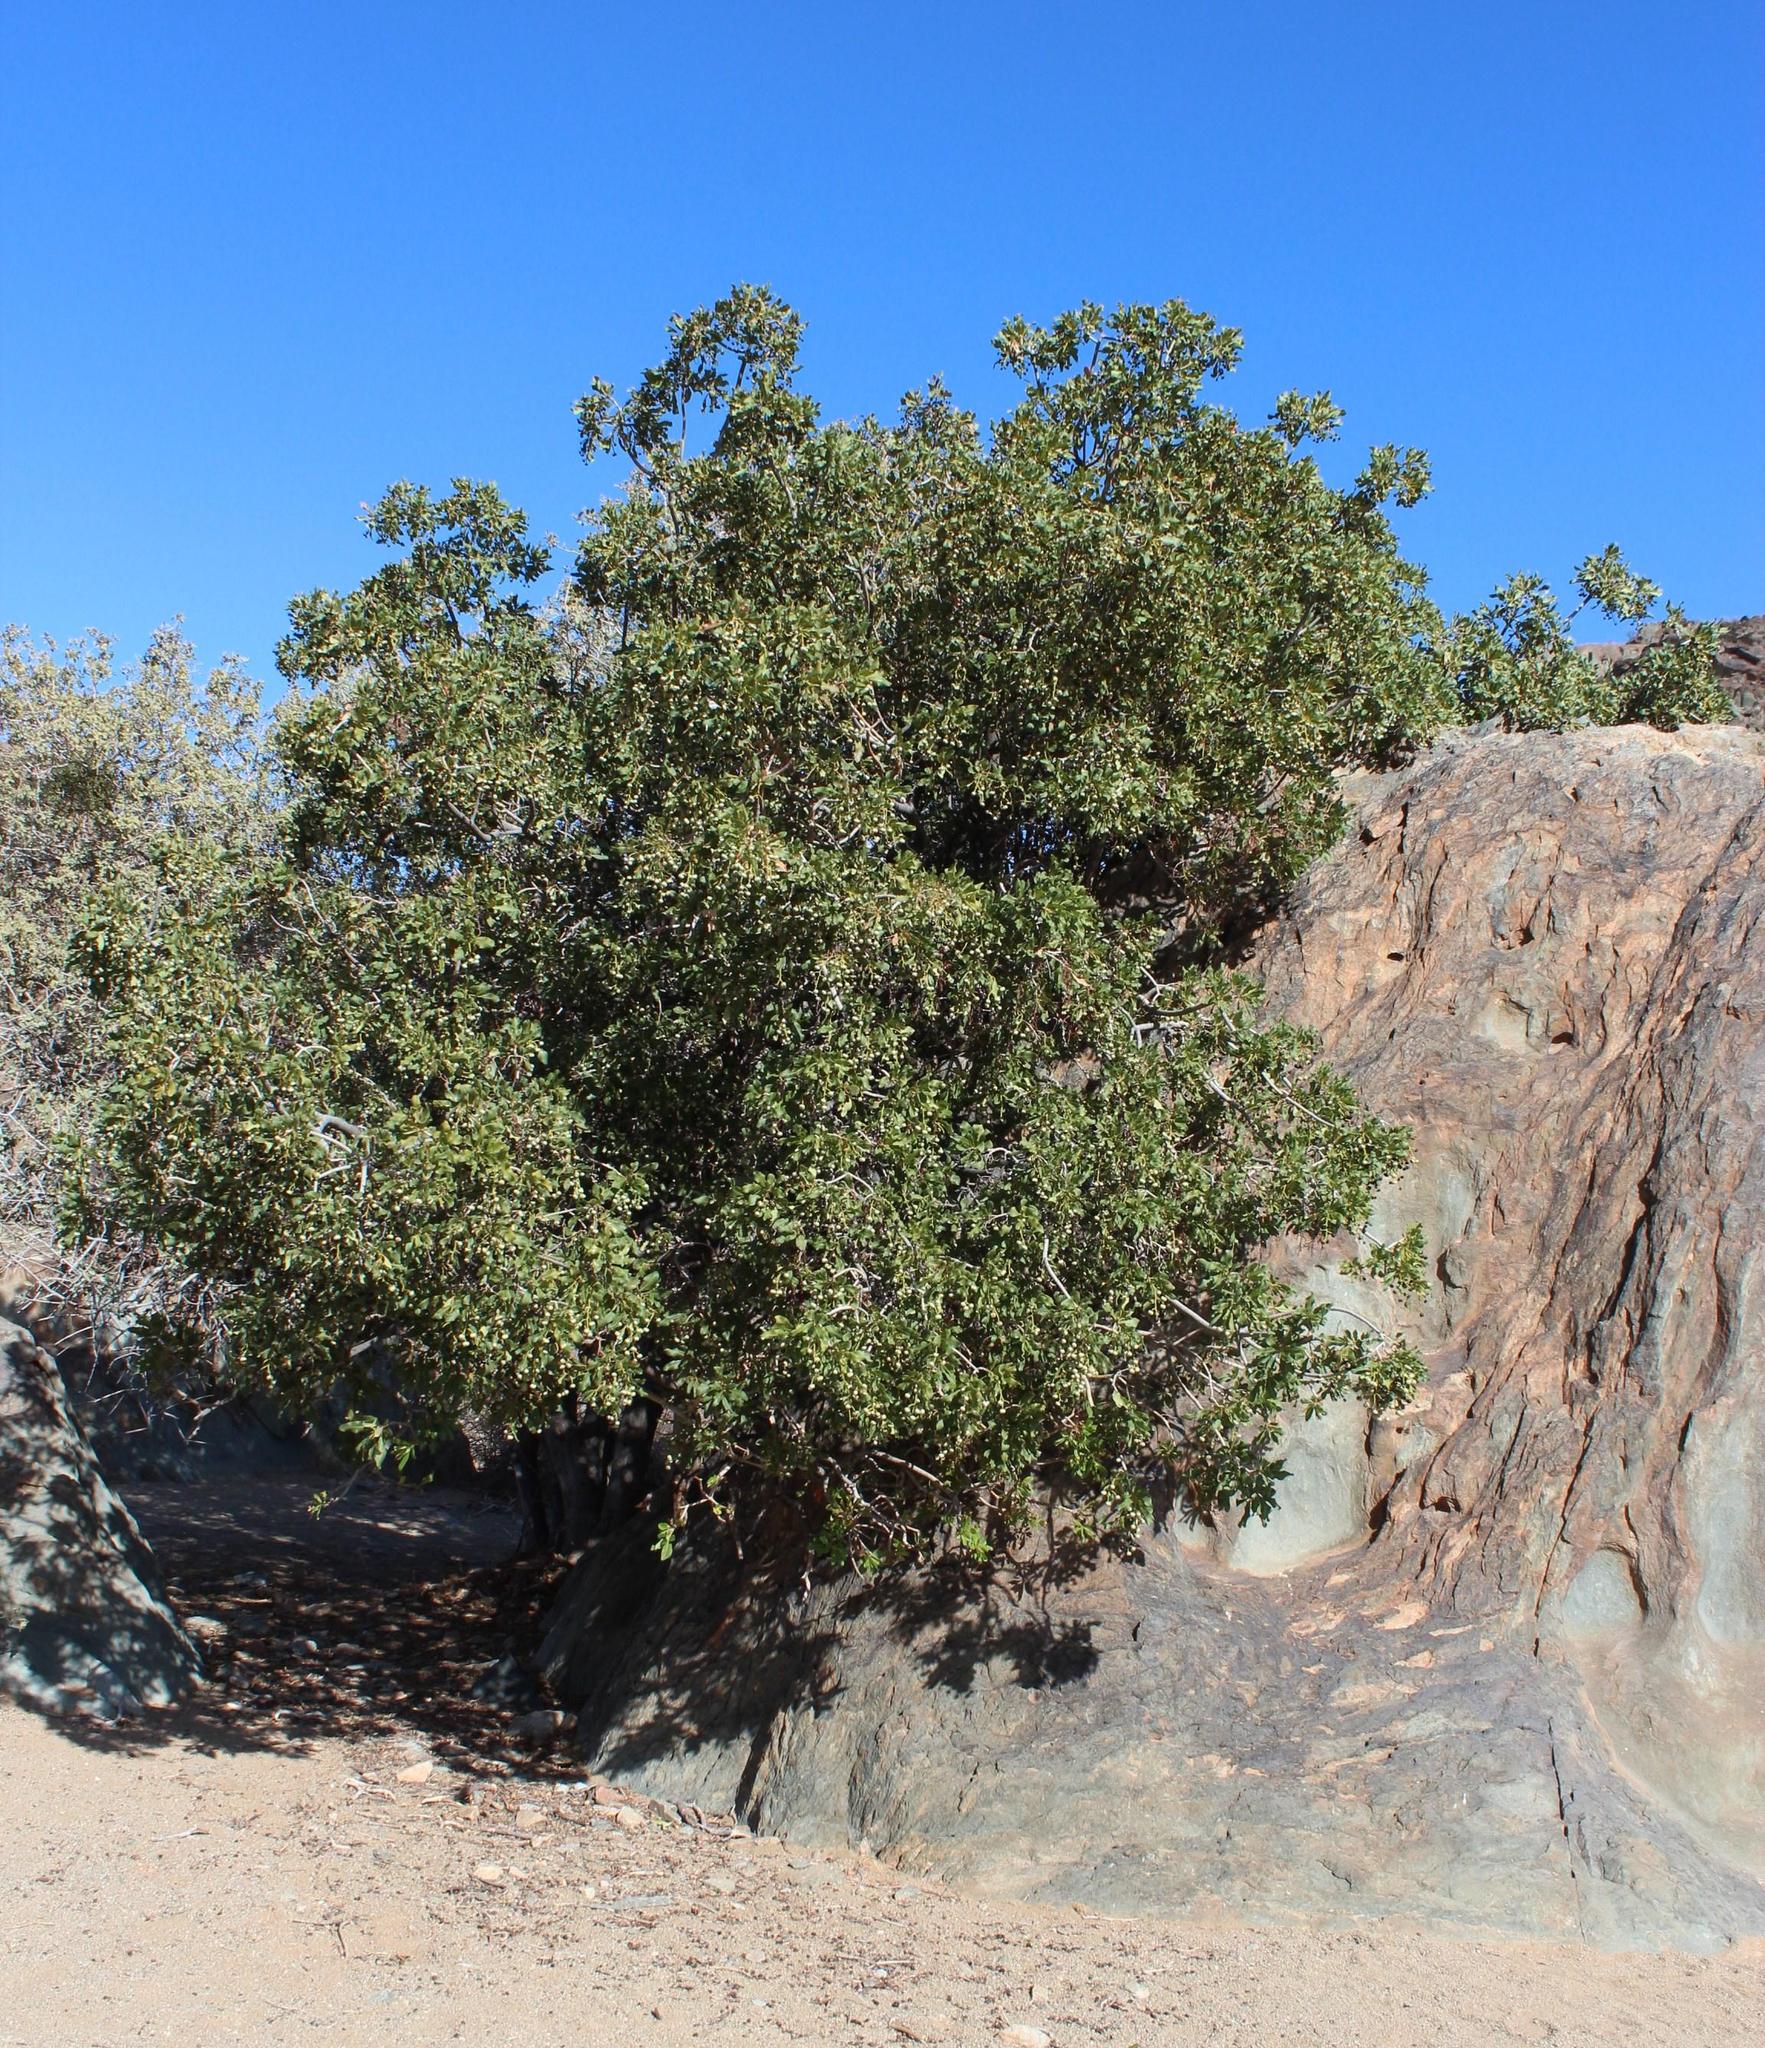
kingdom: Plantae
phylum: Tracheophyta
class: Magnoliopsida
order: Sapindales
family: Anacardiaceae
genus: Ozoroa
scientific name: Ozoroa dispar
